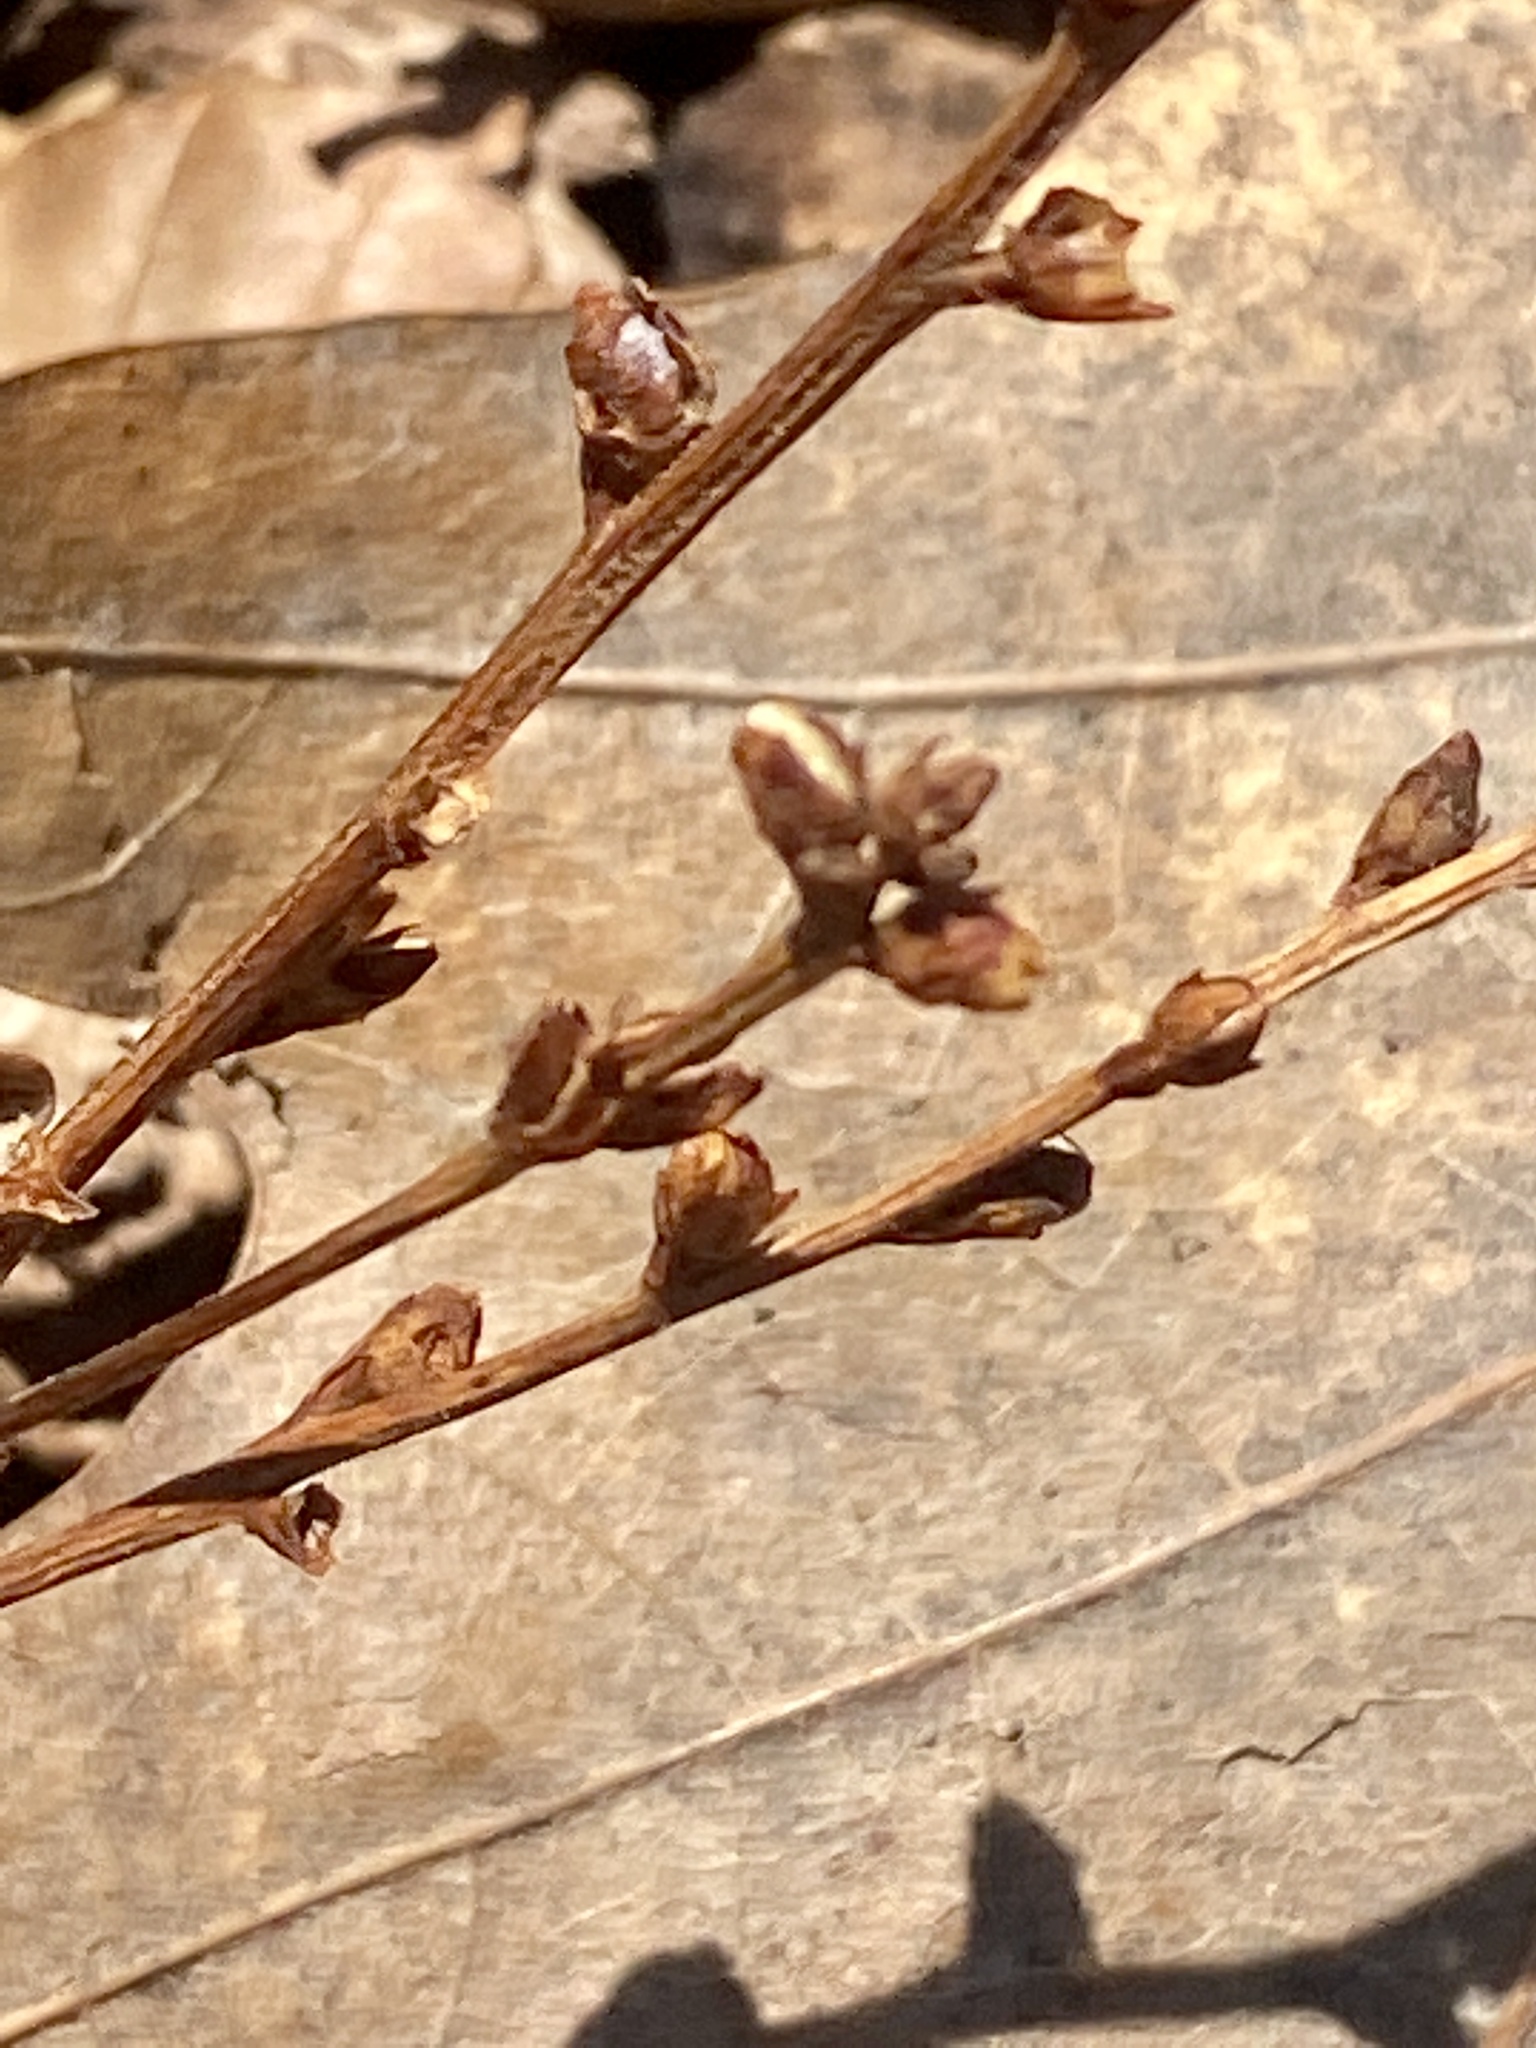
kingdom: Plantae
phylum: Tracheophyta
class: Magnoliopsida
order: Lamiales
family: Orobanchaceae
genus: Epifagus
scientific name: Epifagus virginiana
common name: Beechdrops
